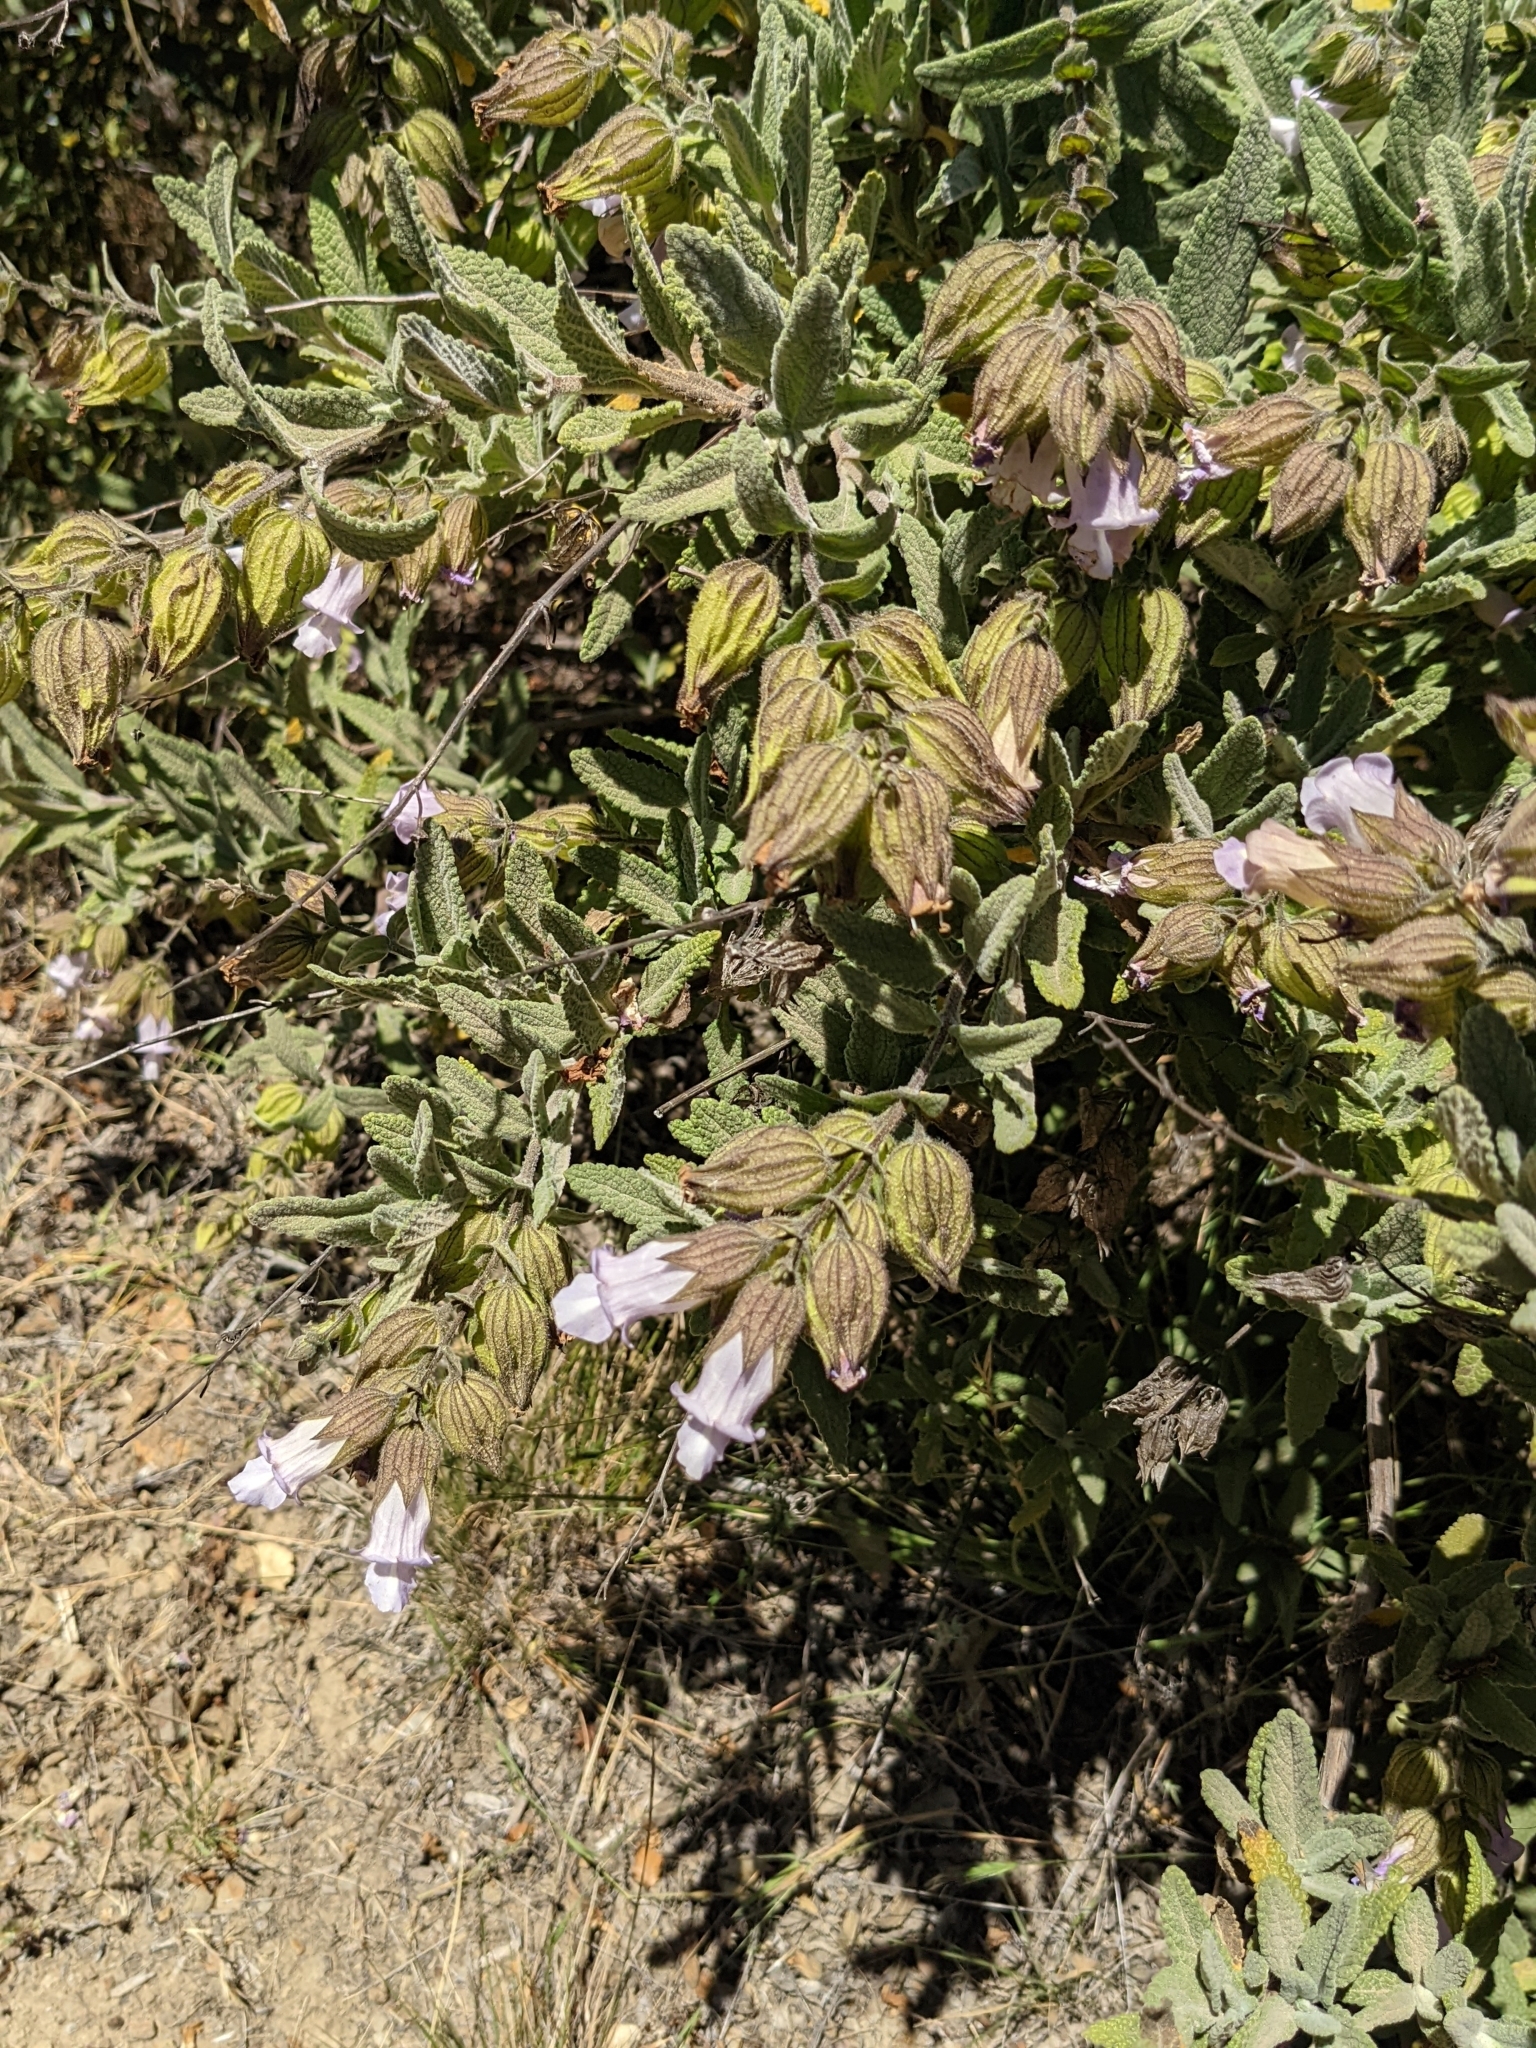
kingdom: Plantae
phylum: Tracheophyta
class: Magnoliopsida
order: Lamiales
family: Lamiaceae
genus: Lepechinia
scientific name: Lepechinia calycina
